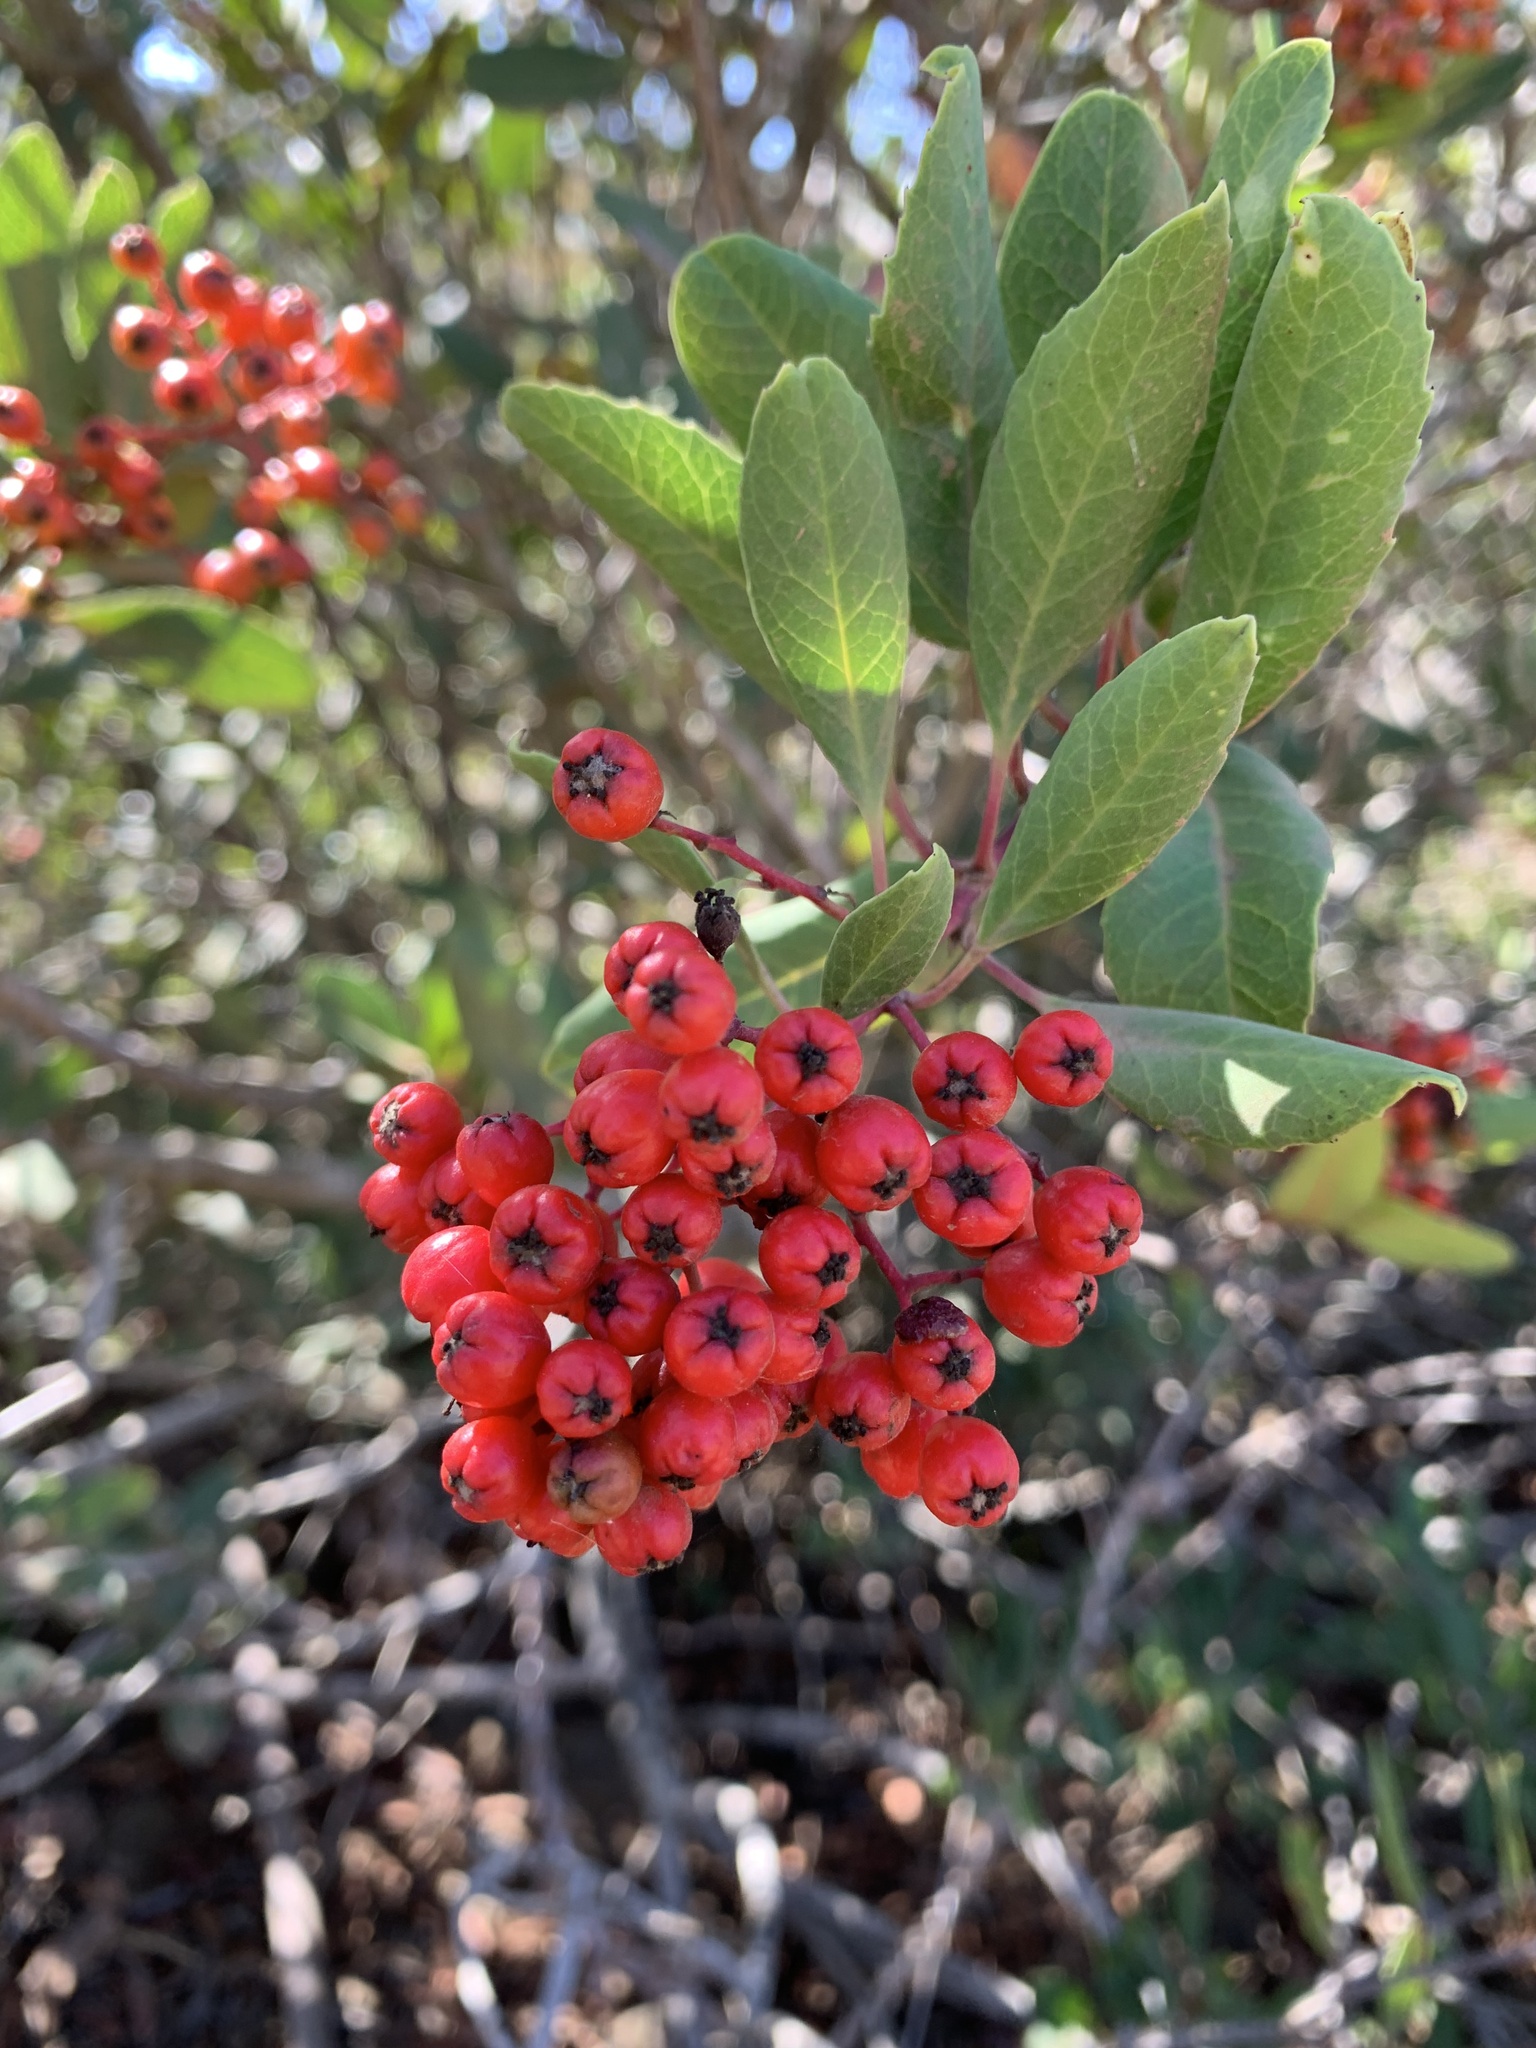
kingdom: Plantae
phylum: Tracheophyta
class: Magnoliopsida
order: Rosales
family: Rosaceae
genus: Heteromeles
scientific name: Heteromeles arbutifolia
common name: California-holly
